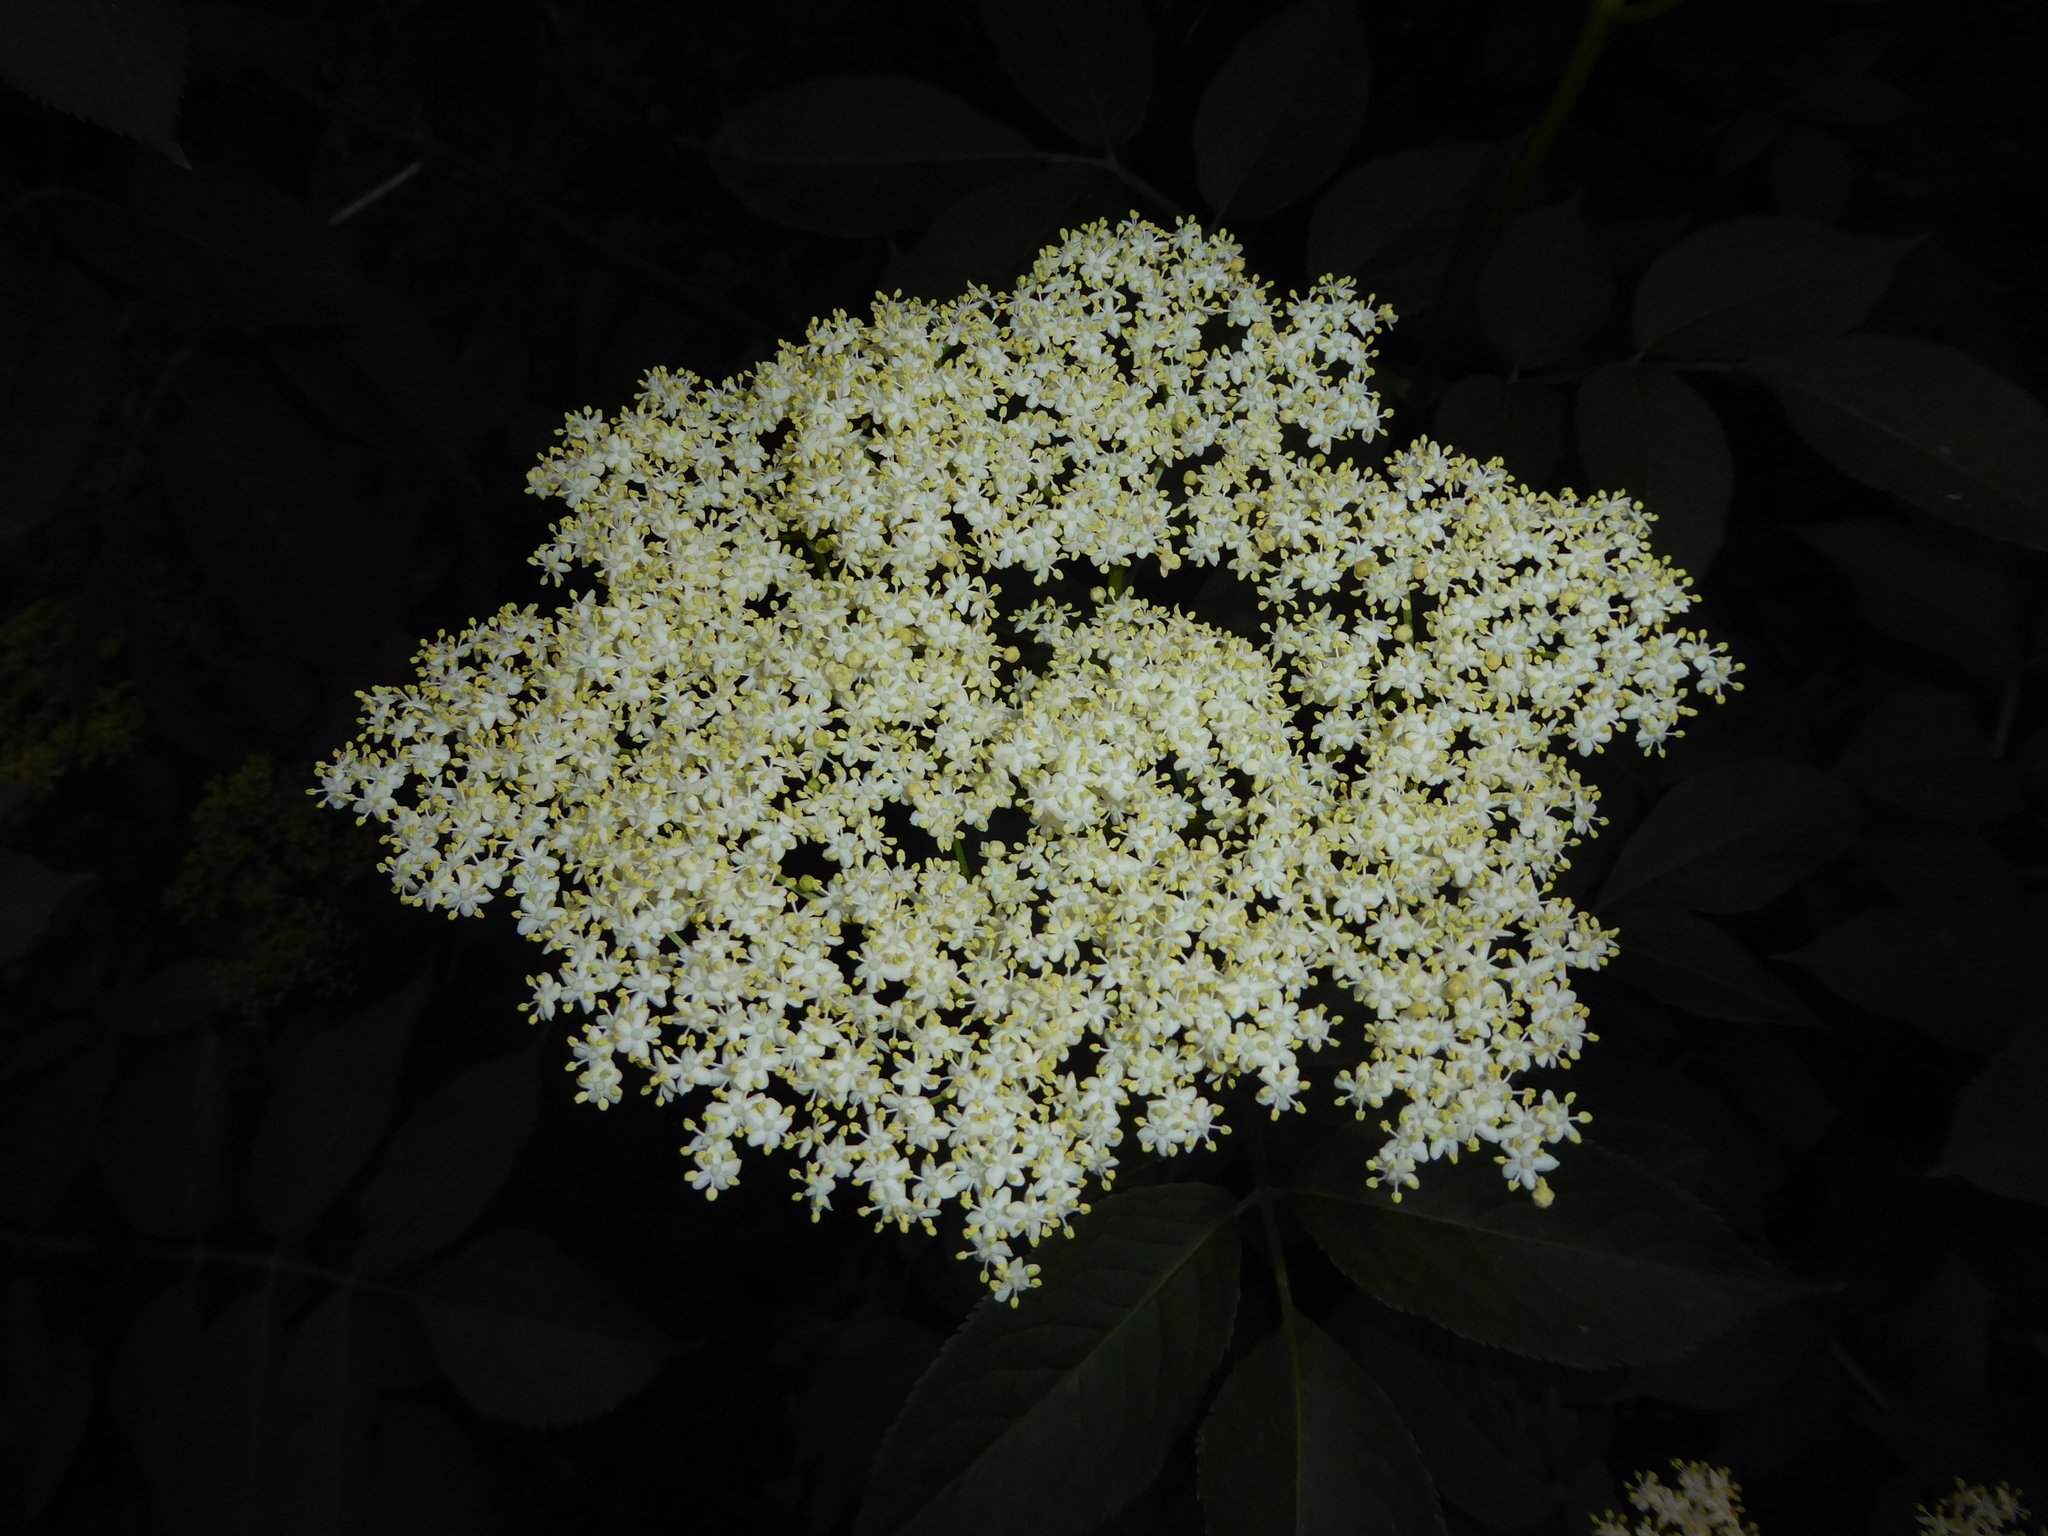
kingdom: Plantae
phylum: Tracheophyta
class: Magnoliopsida
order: Dipsacales
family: Viburnaceae
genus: Sambucus
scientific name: Sambucus nigra
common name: Elder
